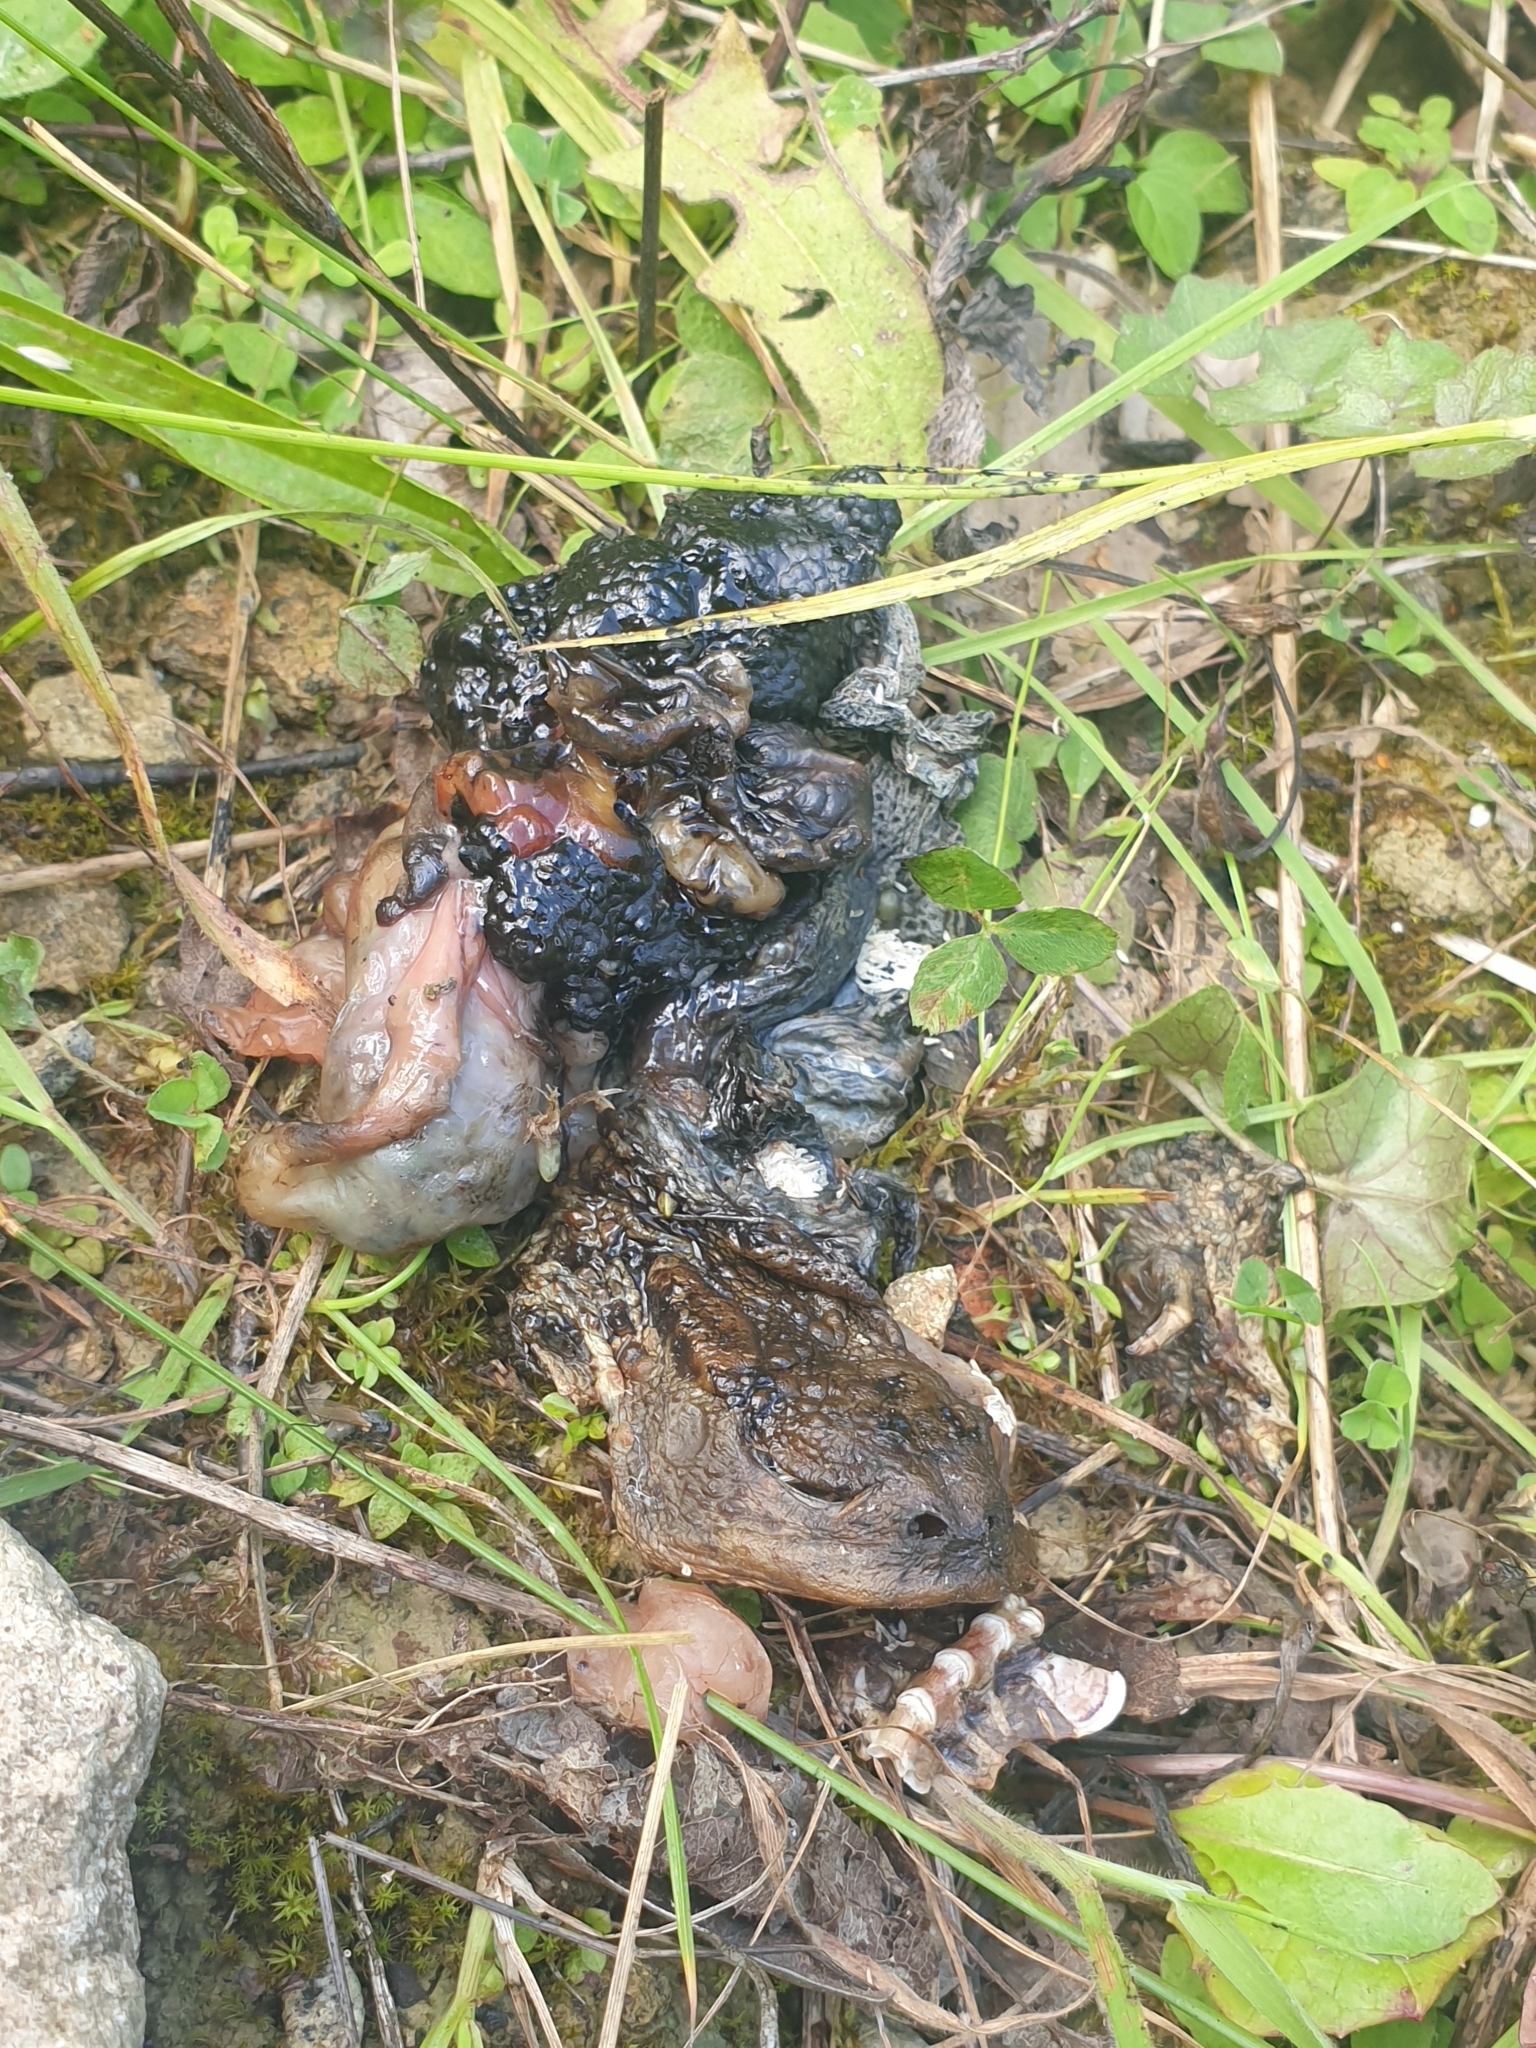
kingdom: Animalia
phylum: Chordata
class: Amphibia
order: Anura
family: Bufonidae
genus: Bufo
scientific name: Bufo bufo
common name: Common toad
